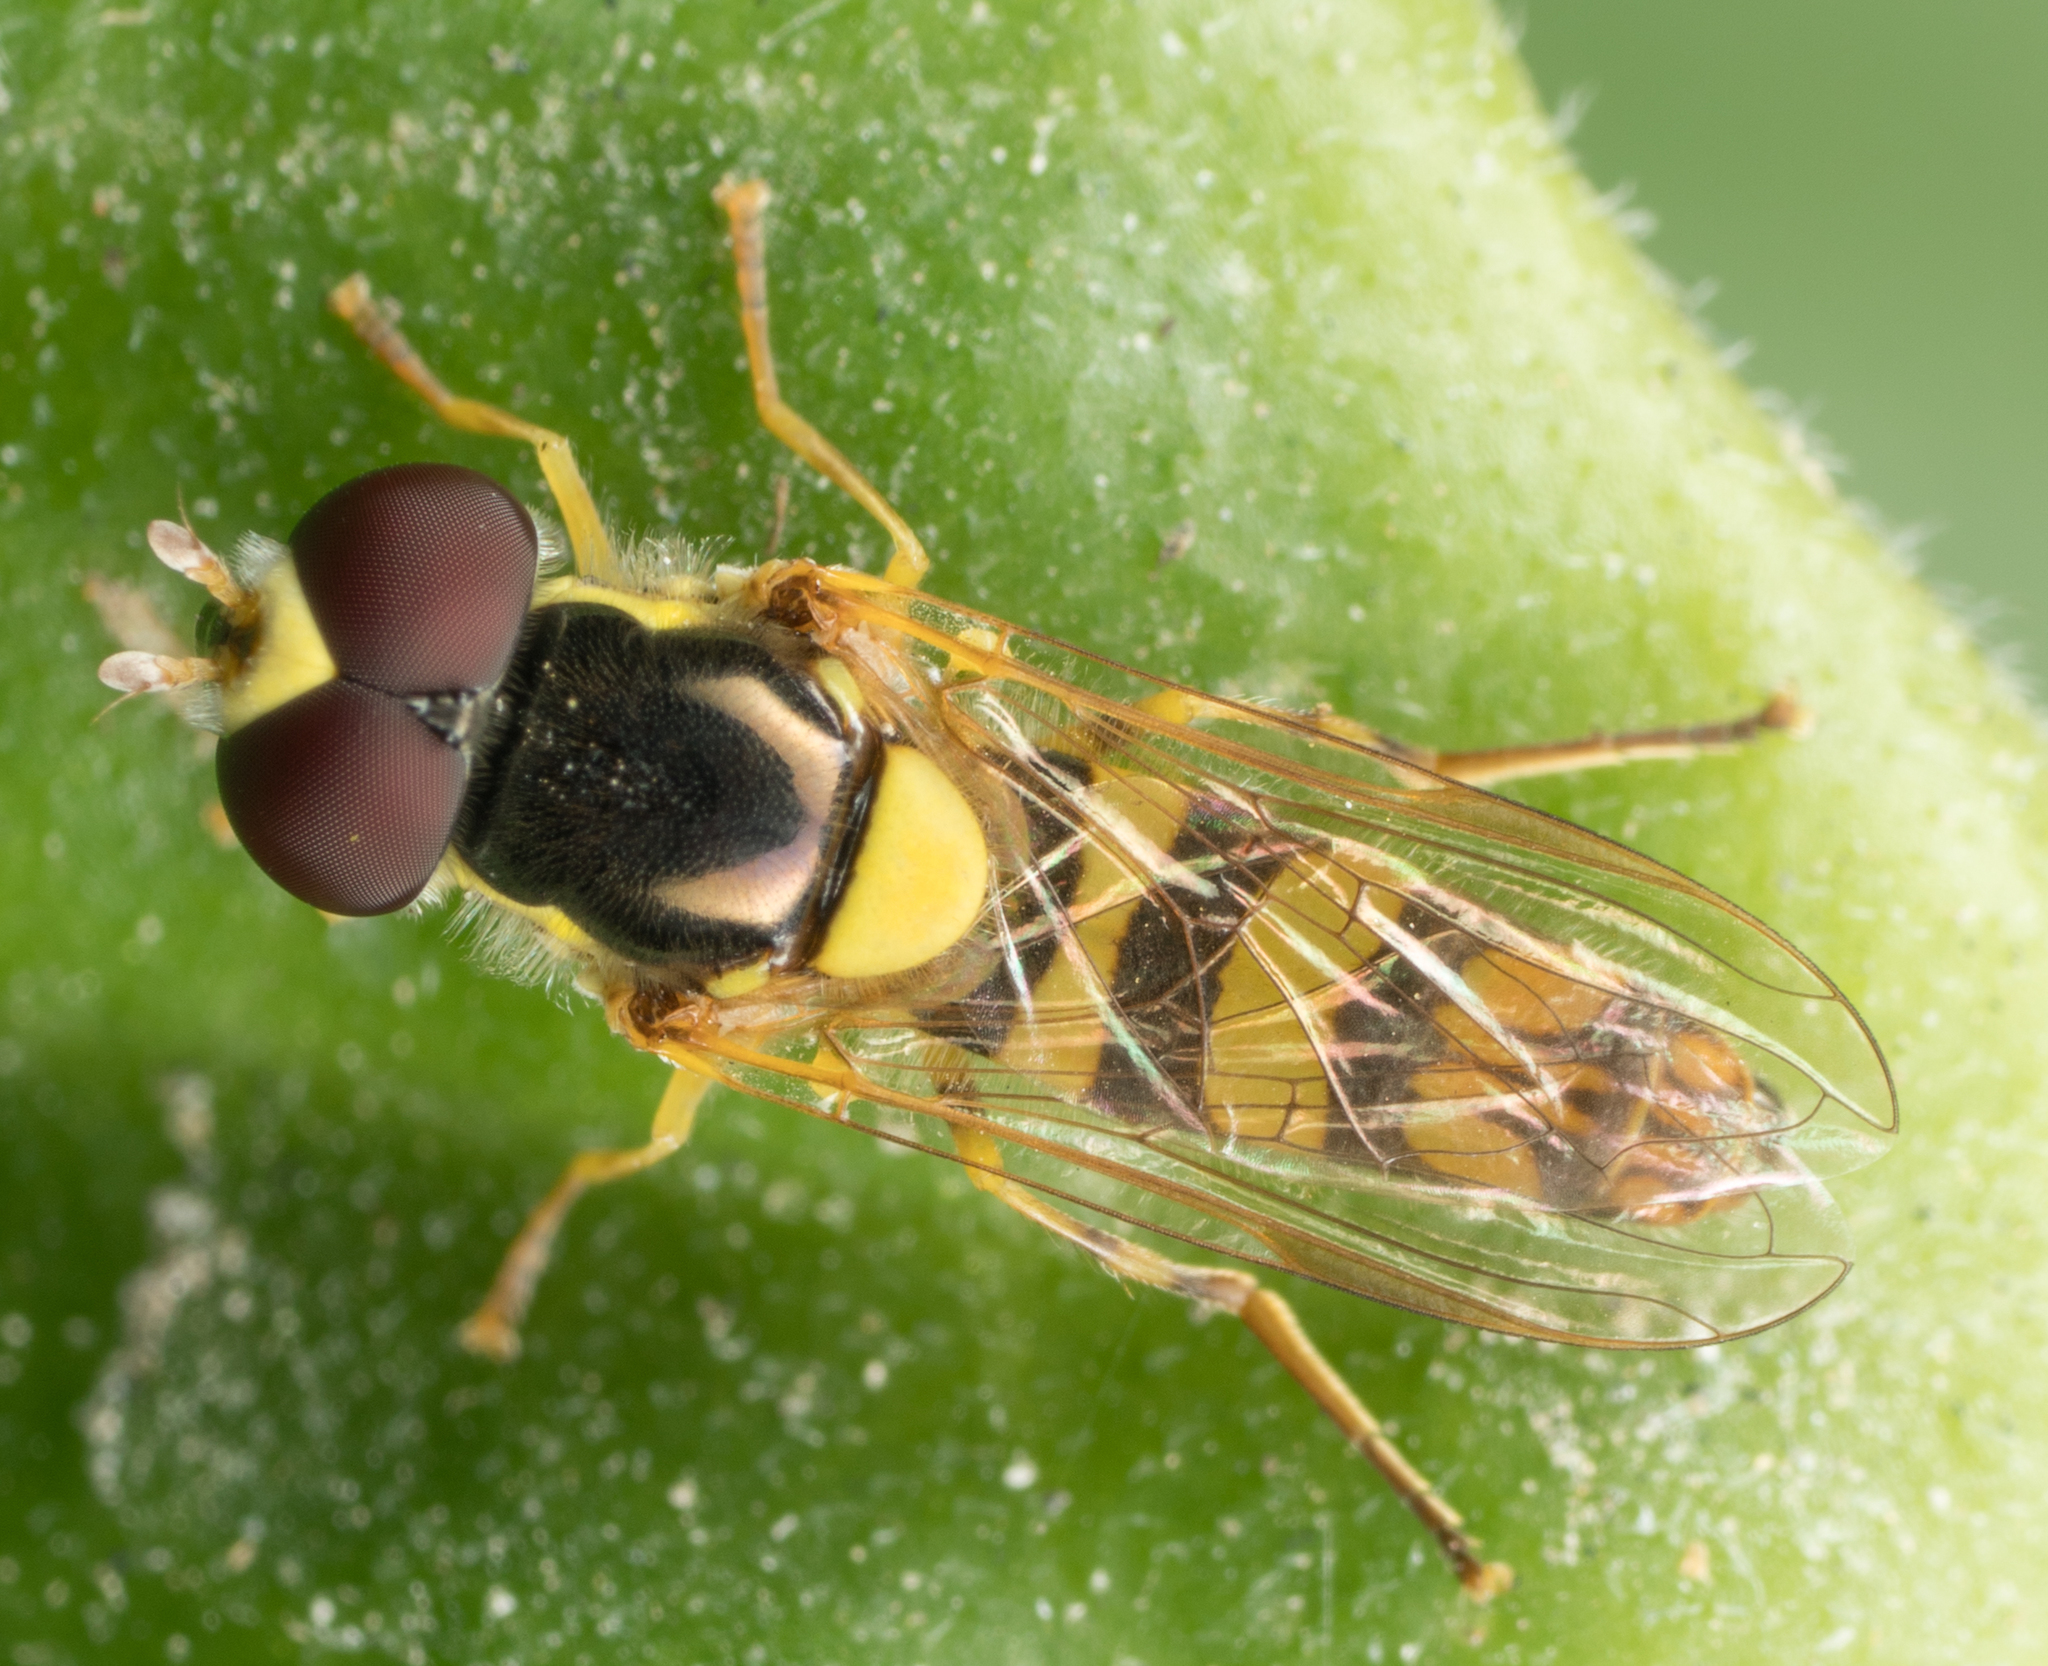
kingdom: Animalia
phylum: Arthropoda
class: Insecta
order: Diptera
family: Syrphidae
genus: Allograpta
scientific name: Allograpta exotica
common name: Syrphid fly
